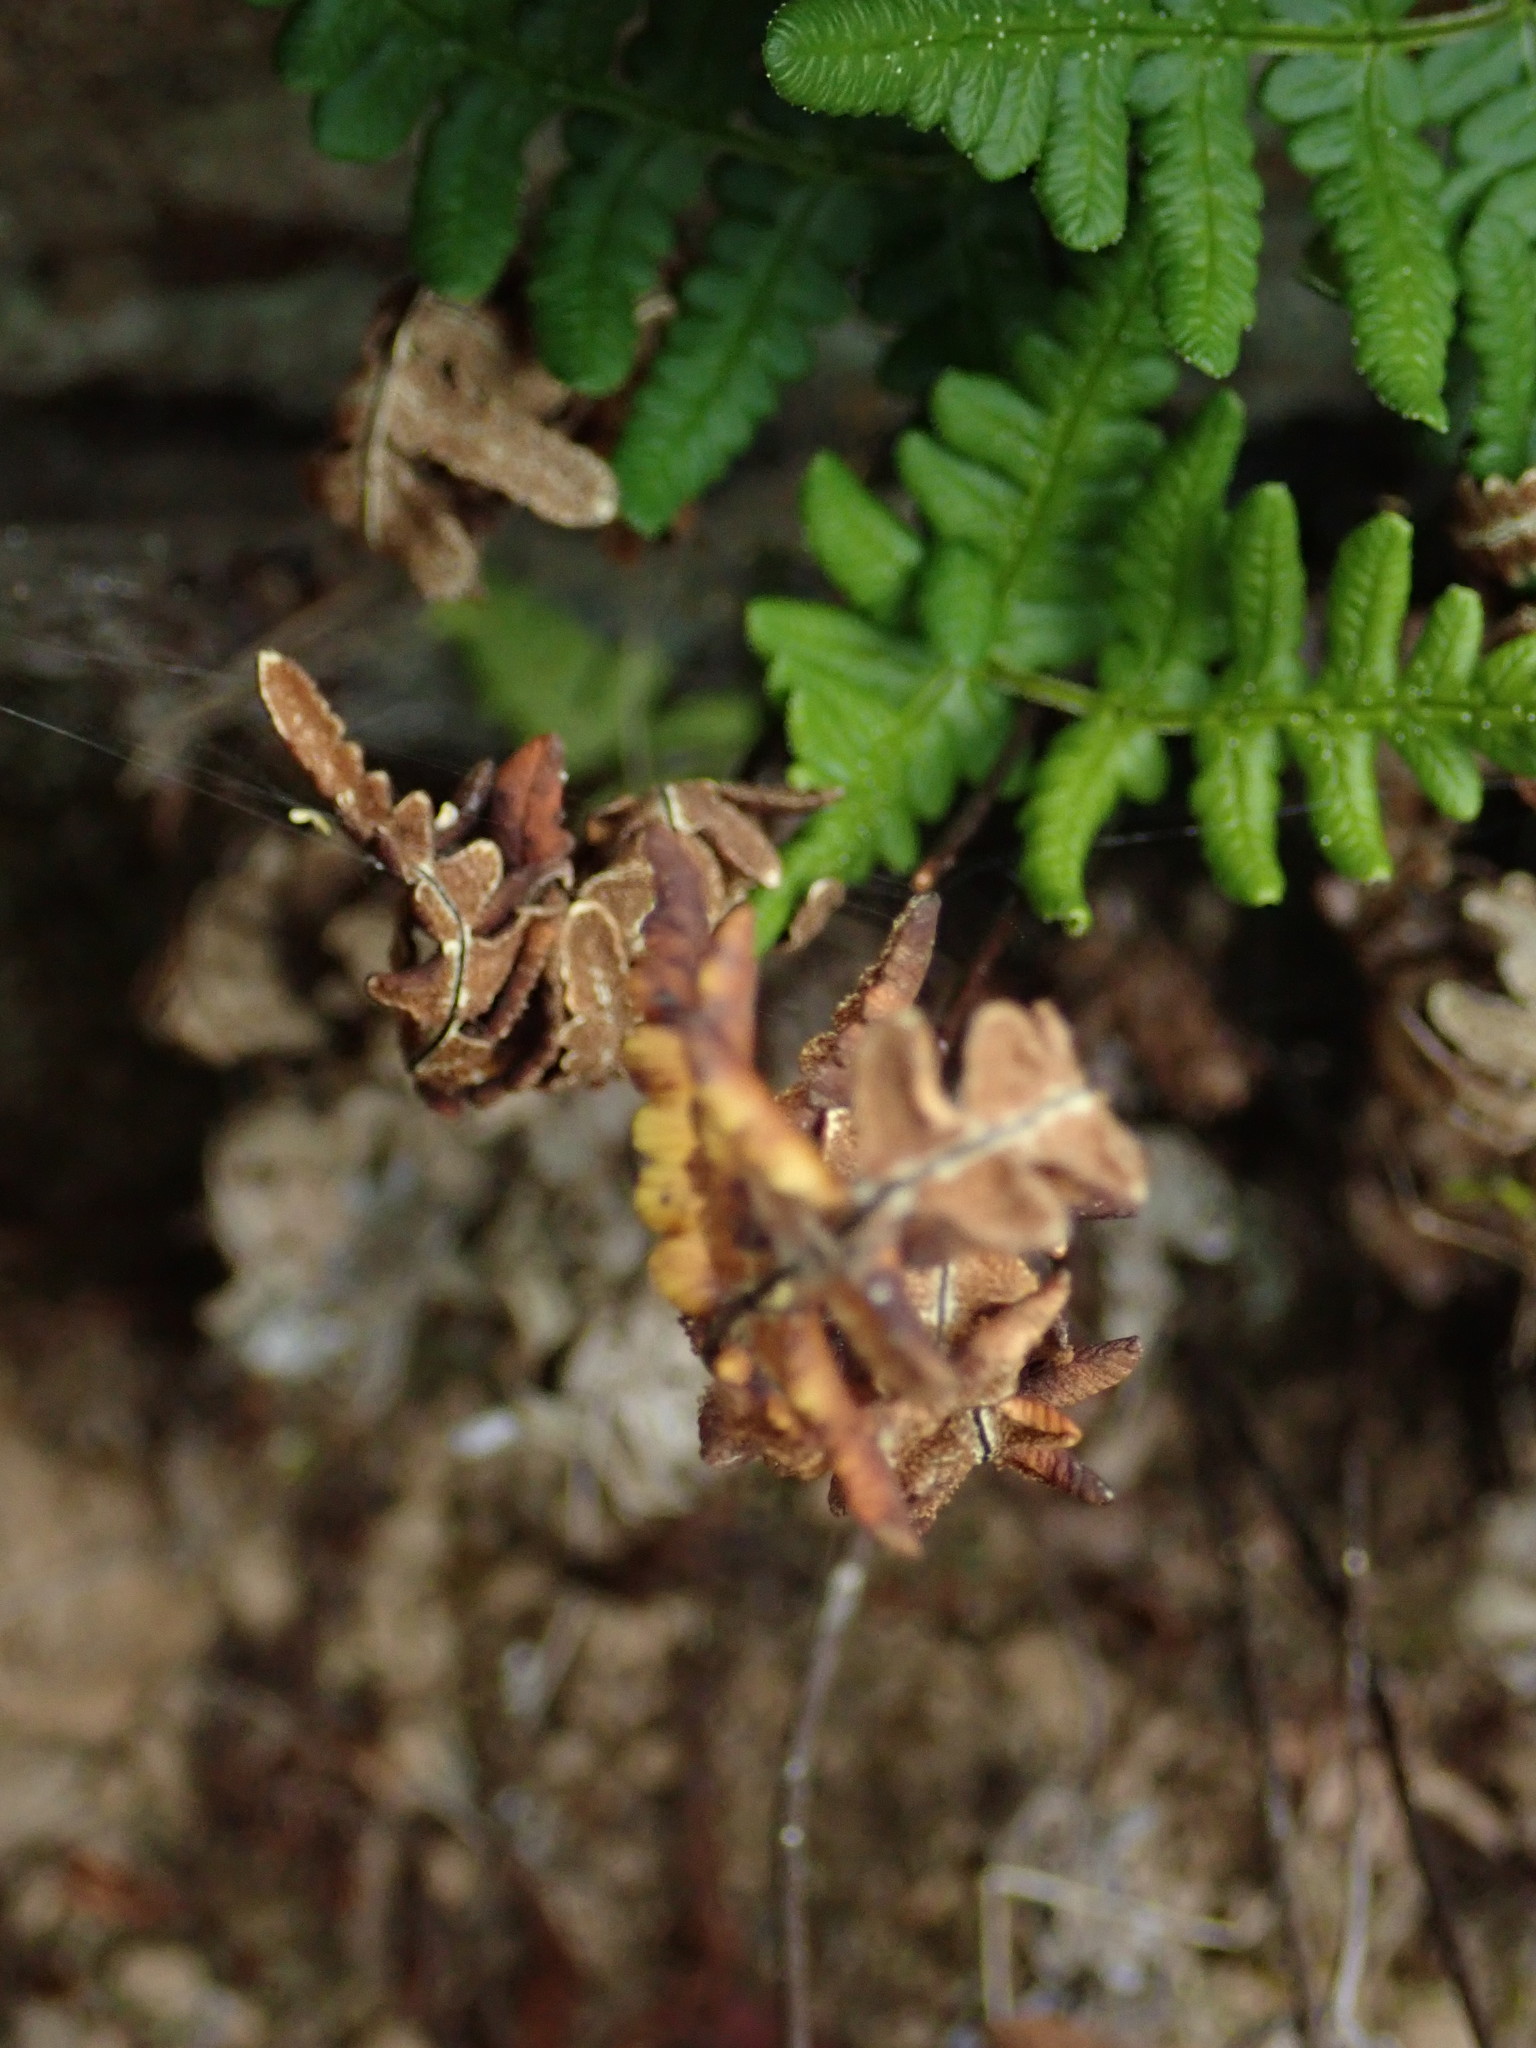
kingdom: Plantae
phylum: Tracheophyta
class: Polypodiopsida
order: Polypodiales
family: Pteridaceae
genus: Pentagramma
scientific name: Pentagramma triangularis
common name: Gold fern
